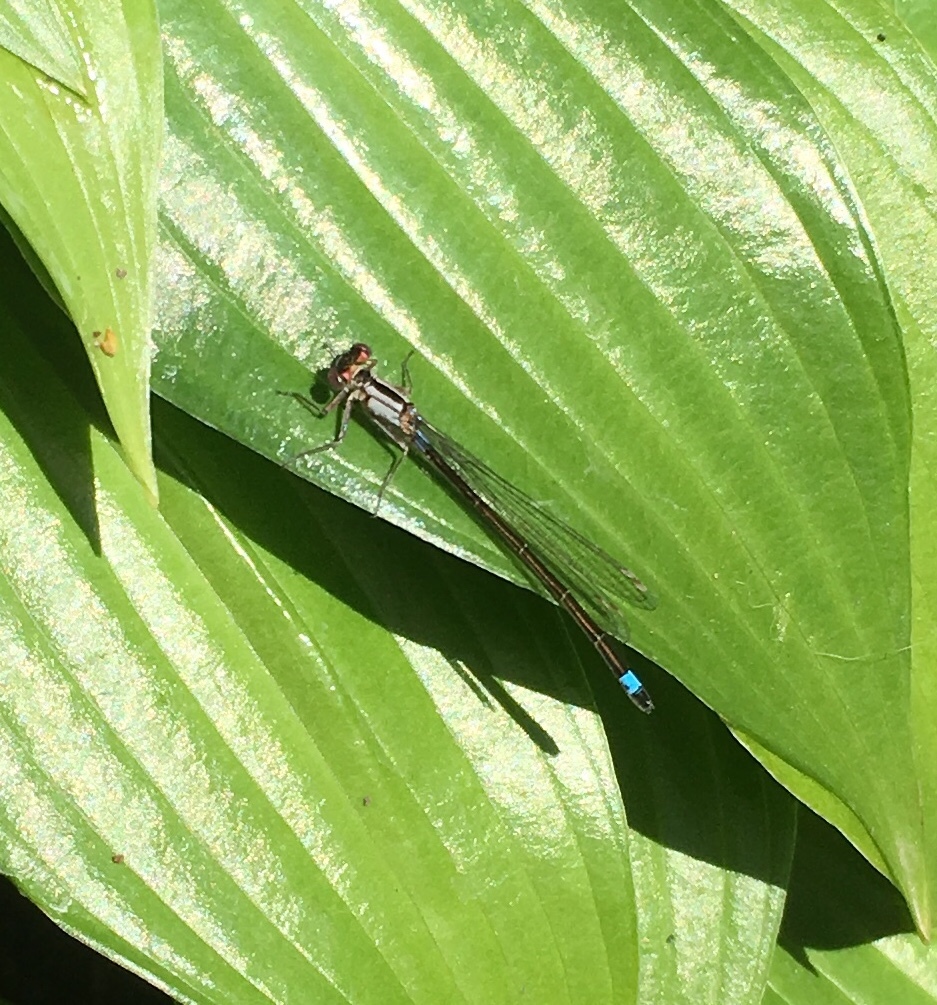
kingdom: Animalia
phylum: Arthropoda
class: Insecta
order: Odonata
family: Coenagrionidae
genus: Ischnura
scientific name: Ischnura cervula
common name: Pacific forktail
